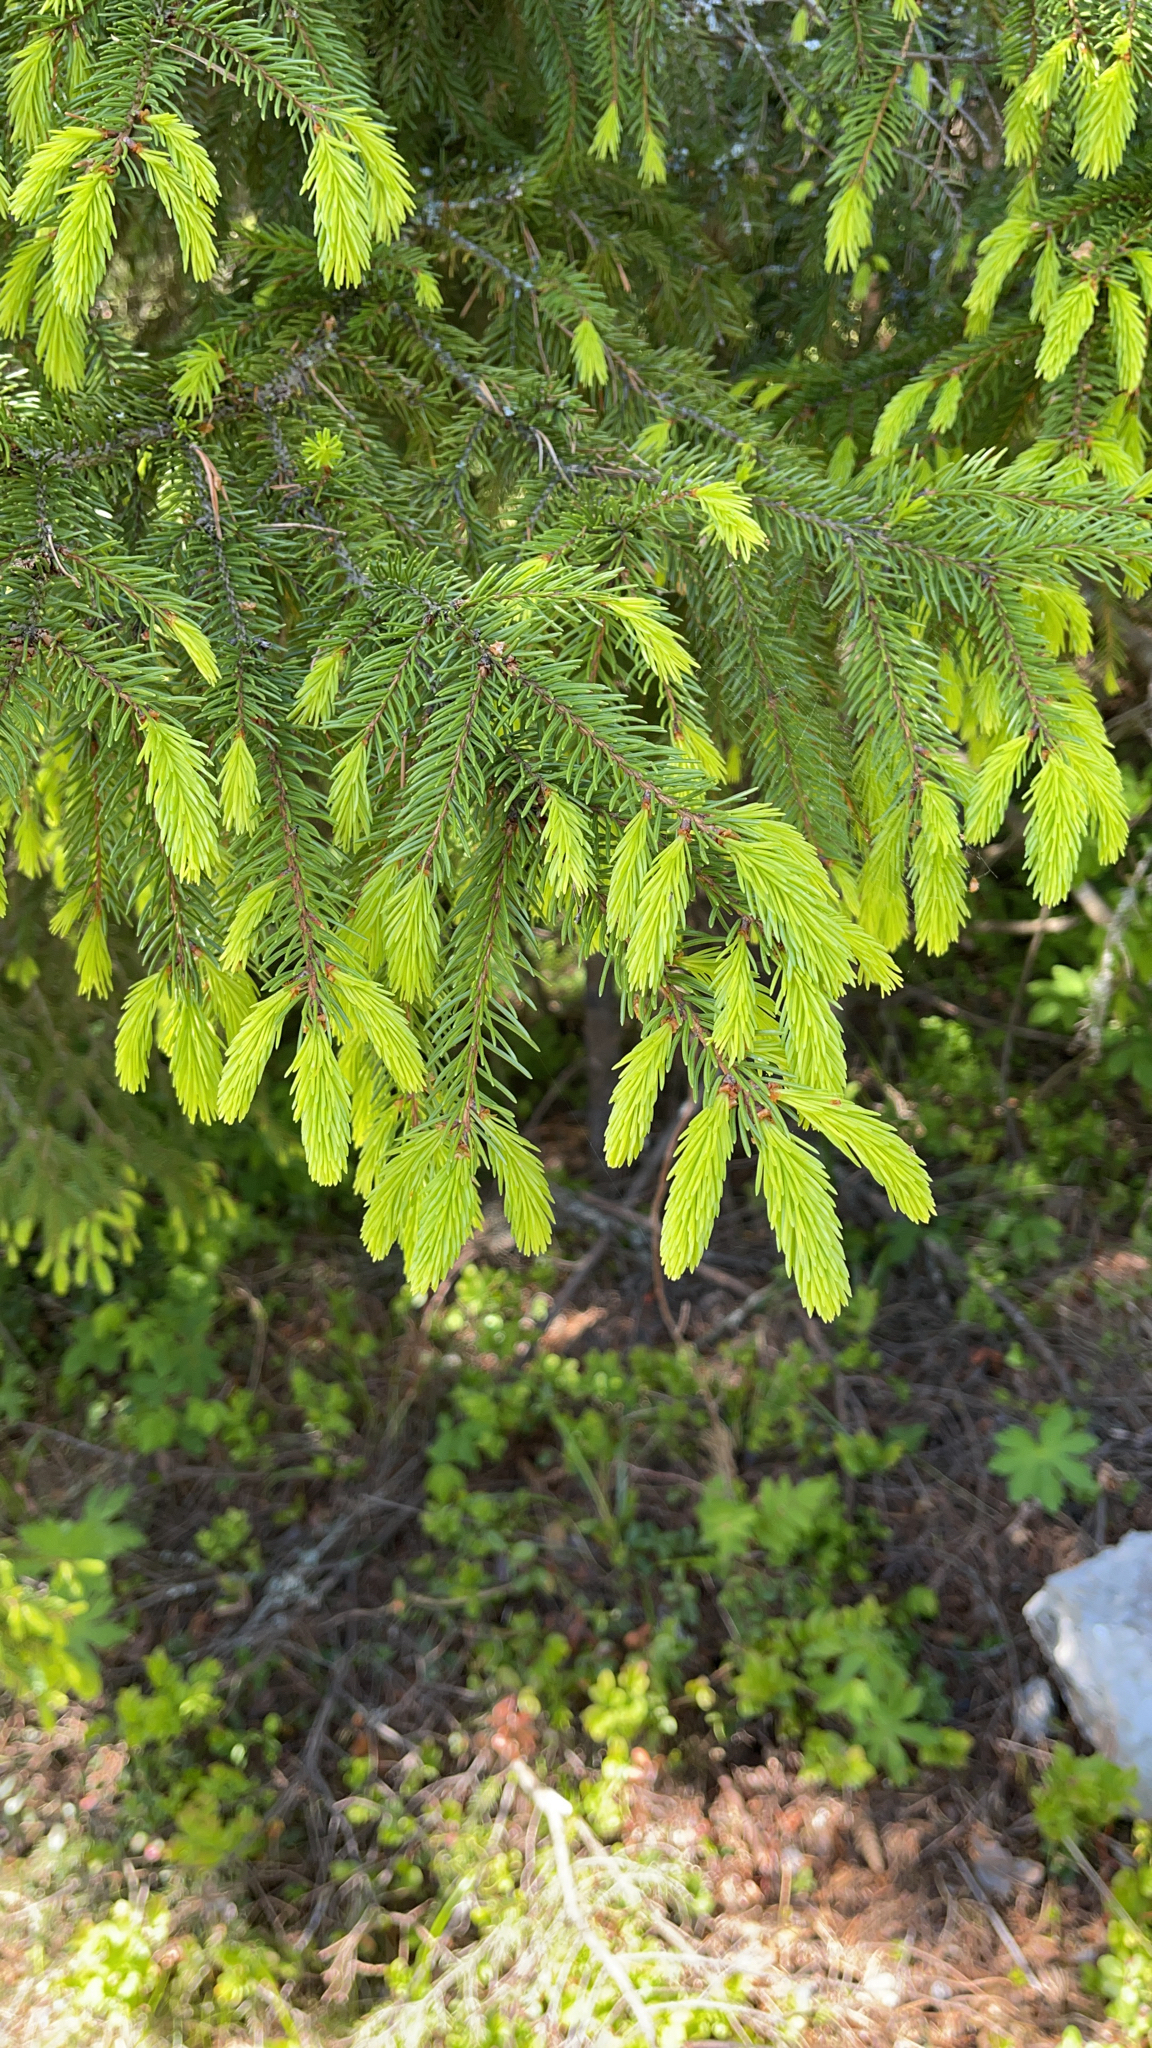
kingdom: Plantae
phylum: Tracheophyta
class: Pinopsida
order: Pinales
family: Pinaceae
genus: Picea
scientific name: Picea abies
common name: Norway spruce
